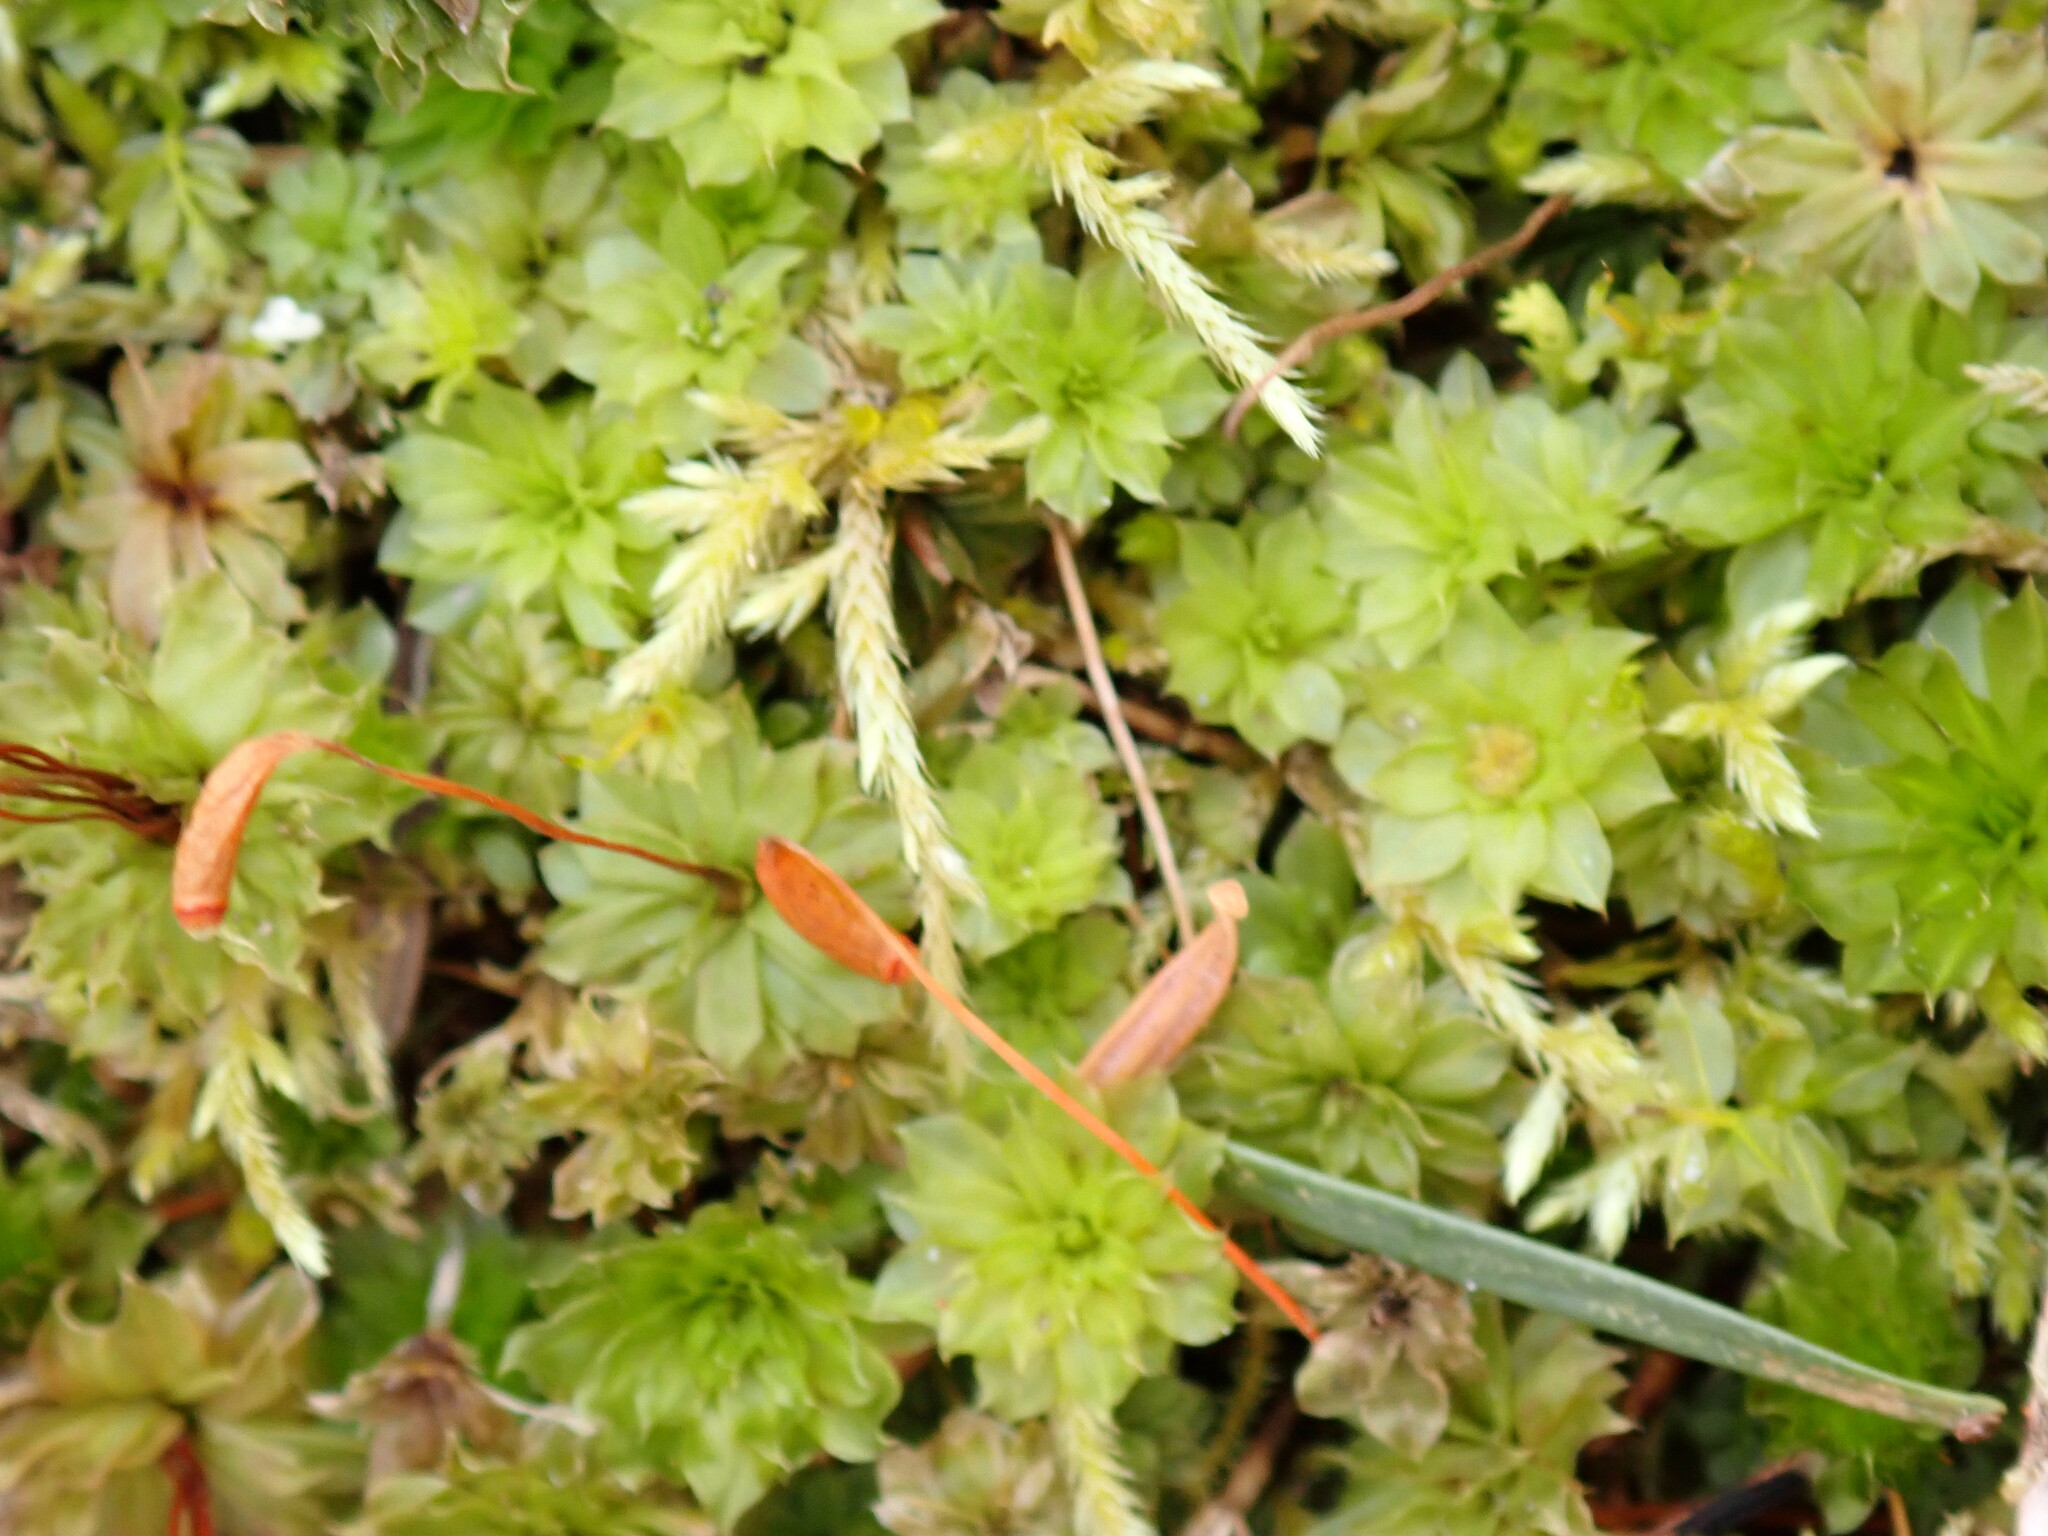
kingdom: Plantae
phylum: Bryophyta
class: Bryopsida
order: Bryales
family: Bryaceae
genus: Rhodobryum
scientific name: Rhodobryum ontariense
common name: Ontario rhodobryum moss
